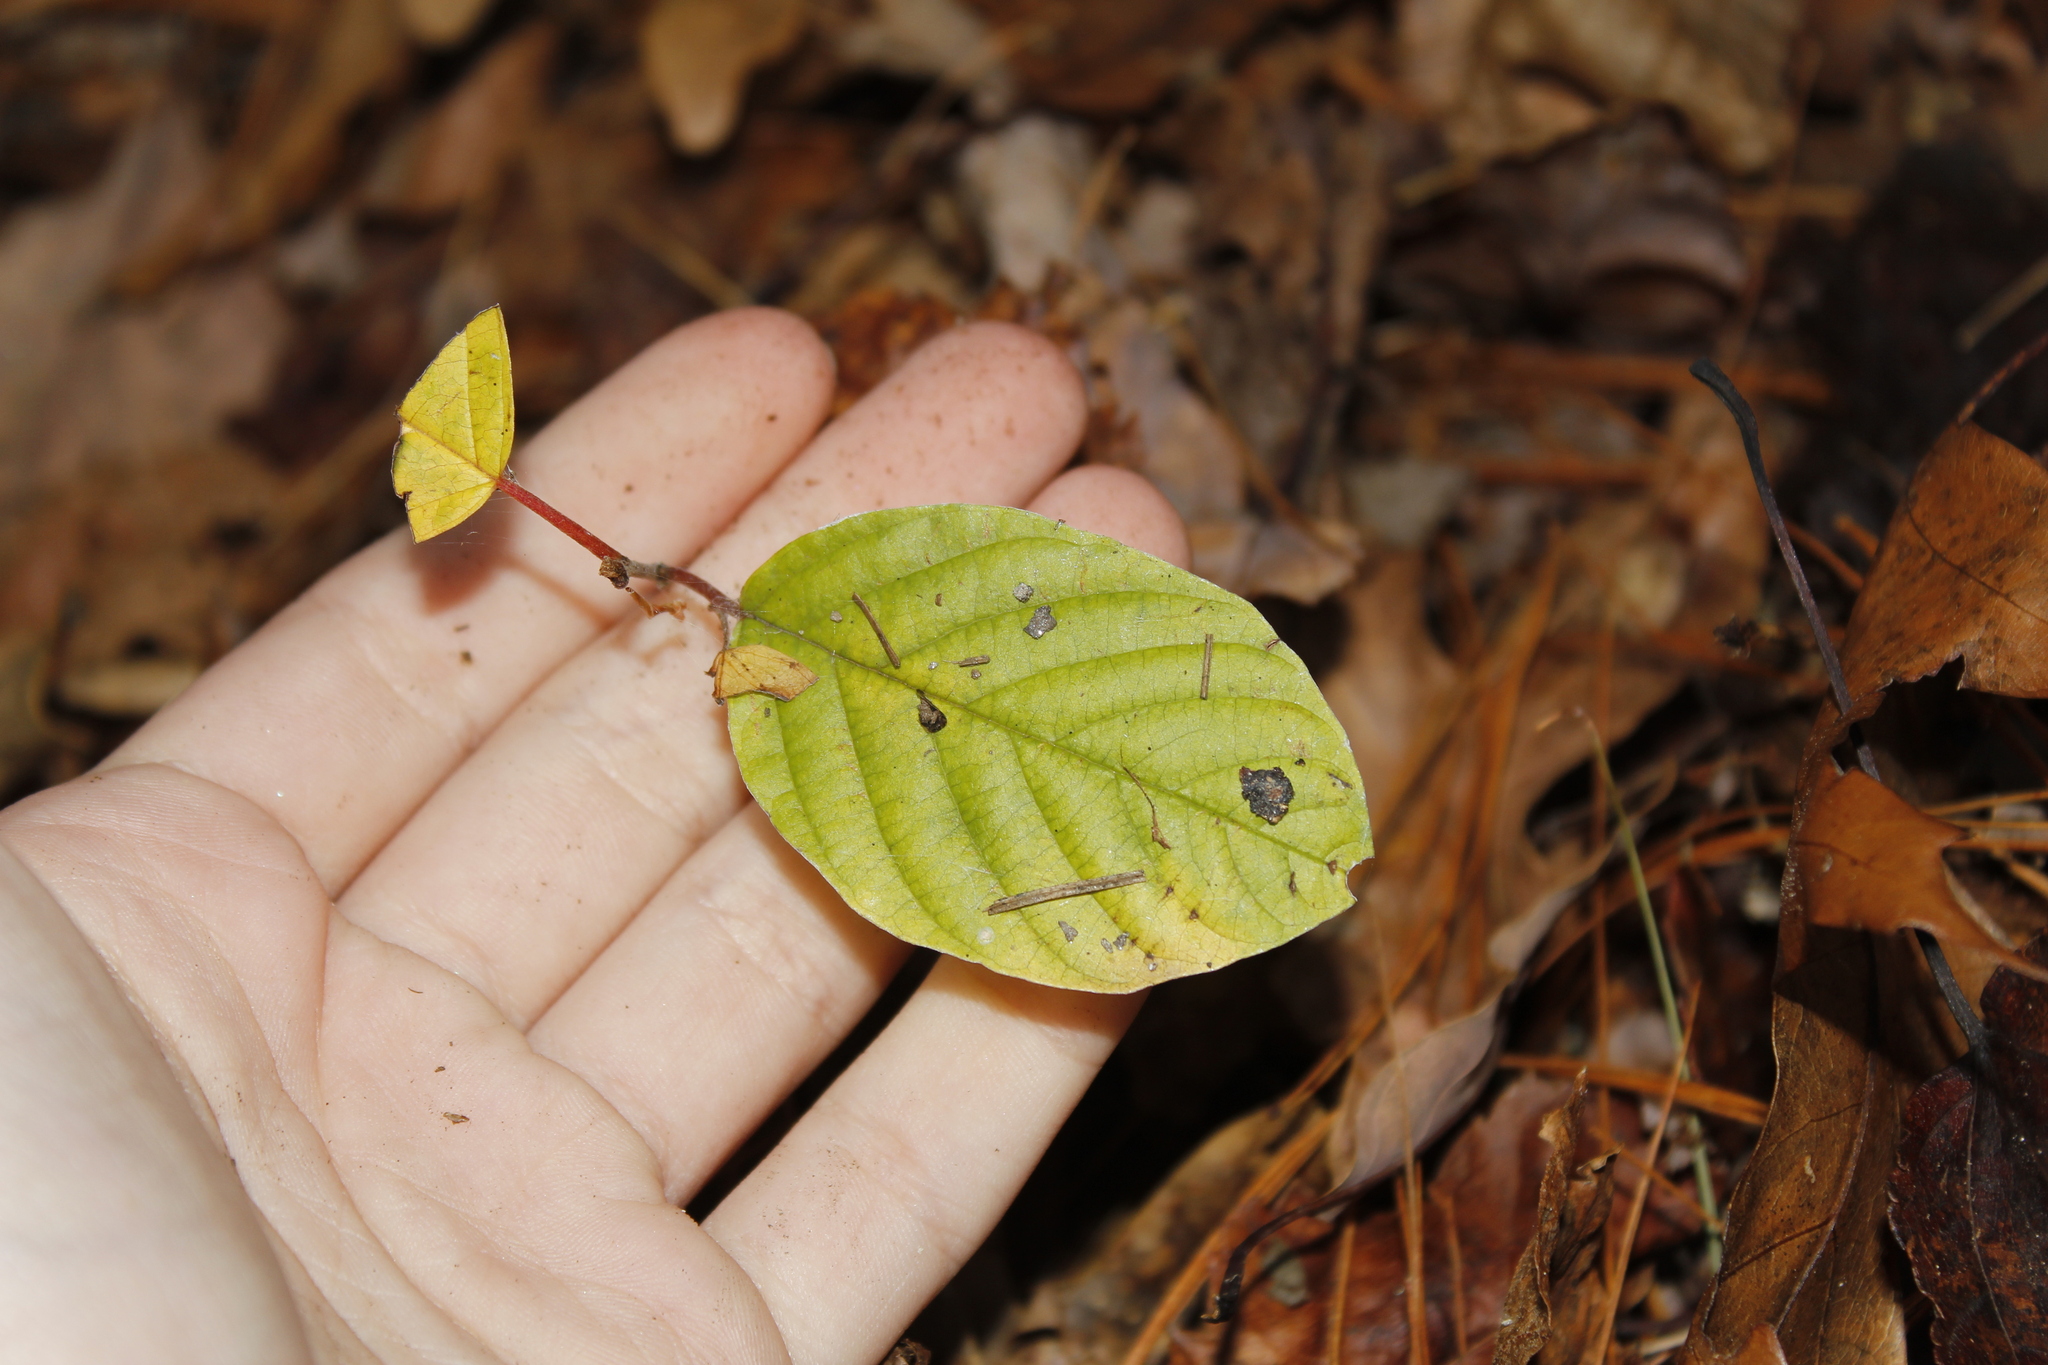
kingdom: Plantae
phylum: Tracheophyta
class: Magnoliopsida
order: Rosales
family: Rhamnaceae
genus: Frangula
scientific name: Frangula alnus
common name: Alder buckthorn
